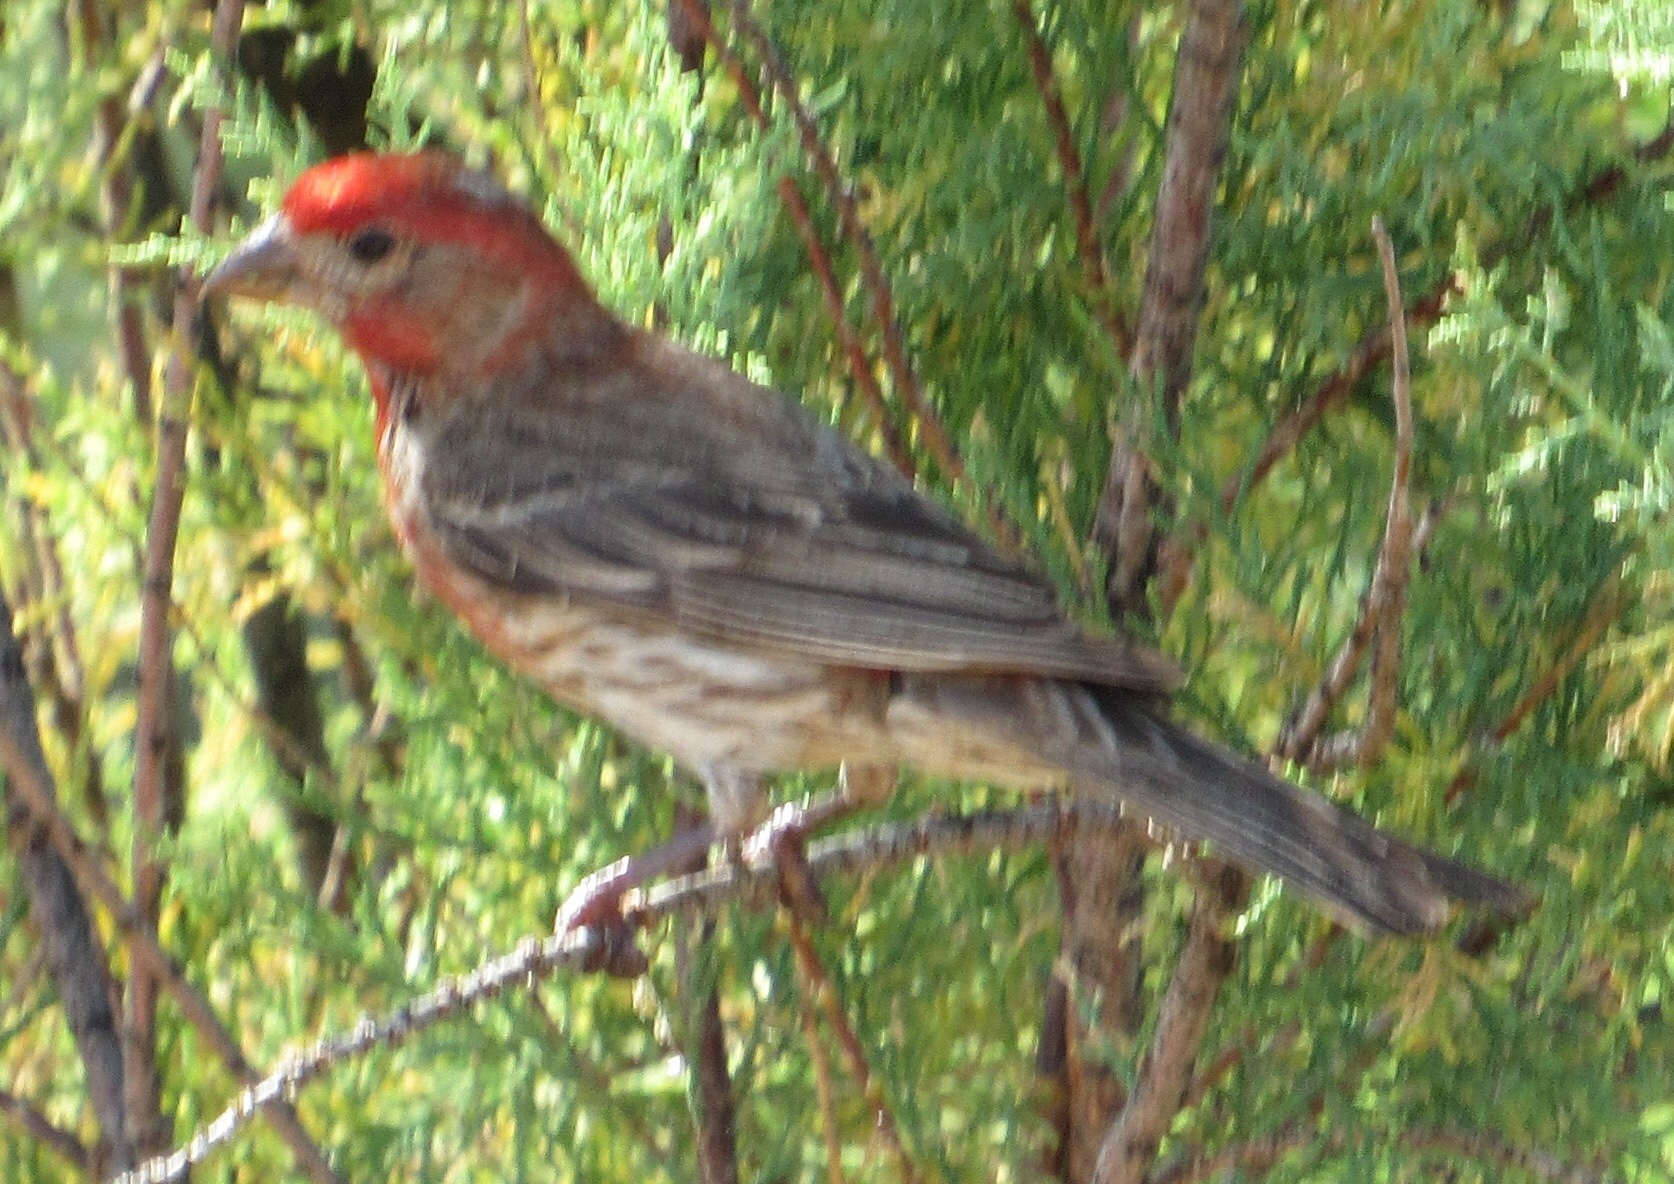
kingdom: Animalia
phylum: Chordata
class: Aves
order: Passeriformes
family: Fringillidae
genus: Haemorhous
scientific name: Haemorhous mexicanus
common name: House finch
